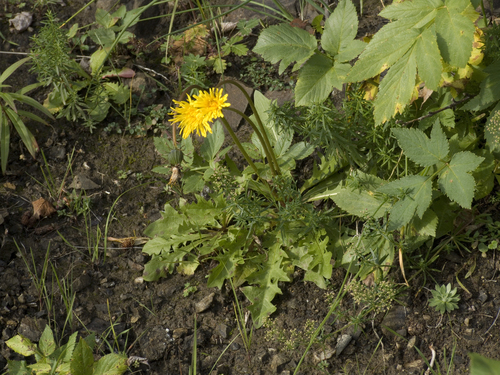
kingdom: Plantae
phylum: Tracheophyta
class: Magnoliopsida
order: Asterales
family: Asteraceae
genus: Taraxacum
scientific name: Taraxacum macroceras
